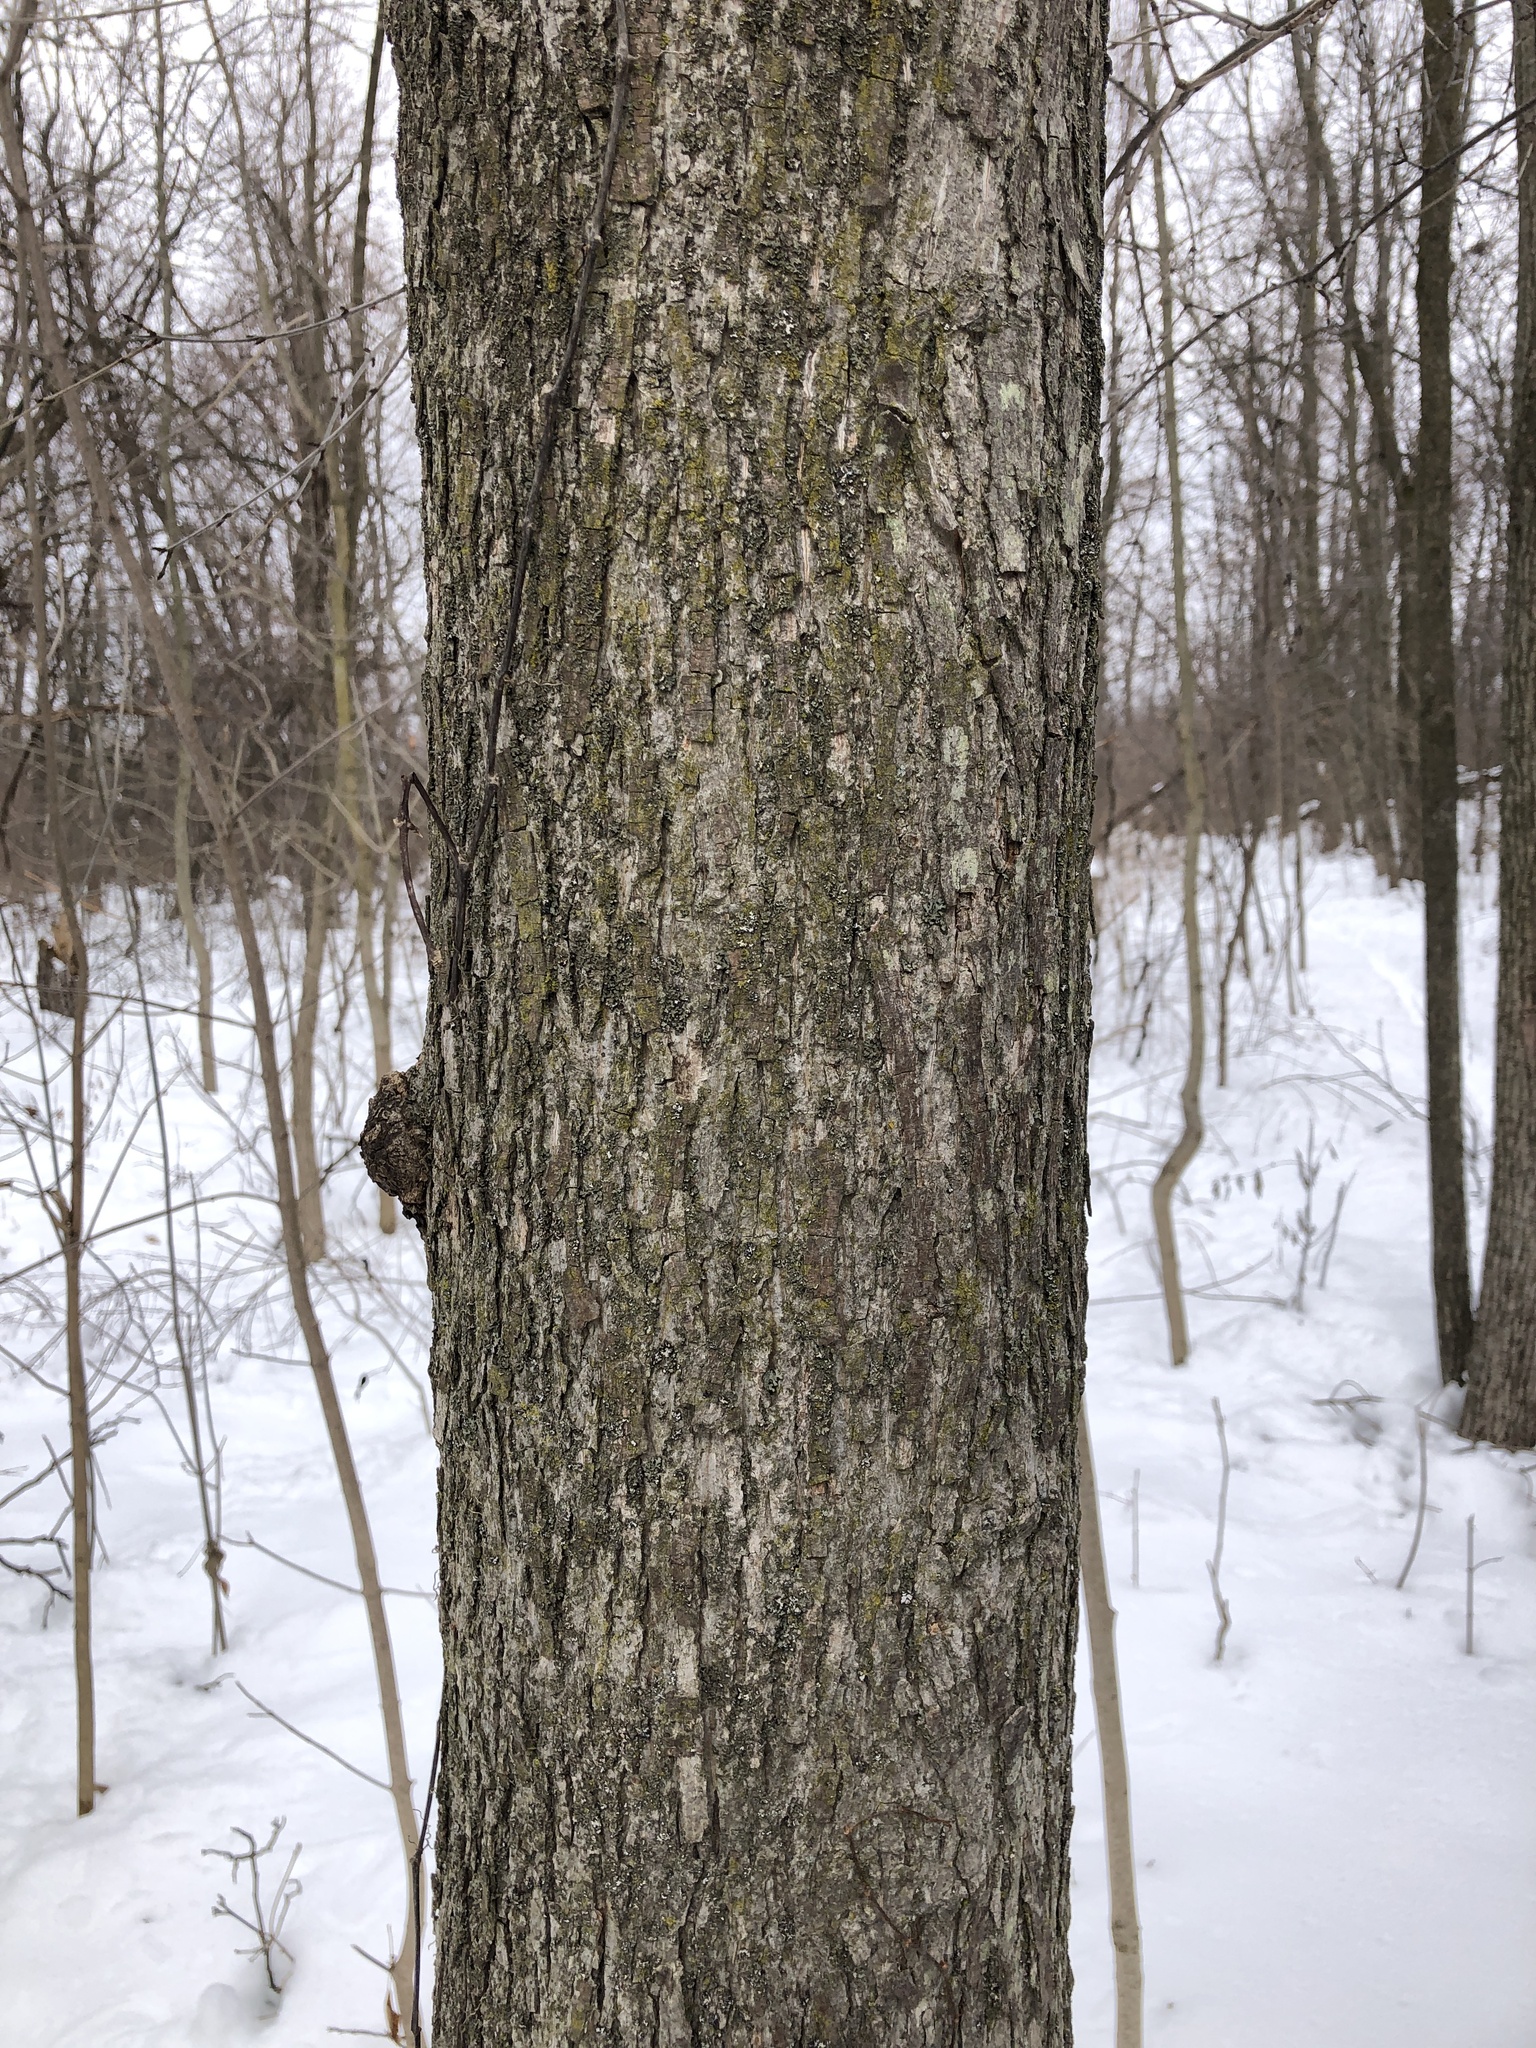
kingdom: Plantae
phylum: Tracheophyta
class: Magnoliopsida
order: Fagales
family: Juglandaceae
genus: Carya
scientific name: Carya cordiformis
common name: Bitternut hickory
